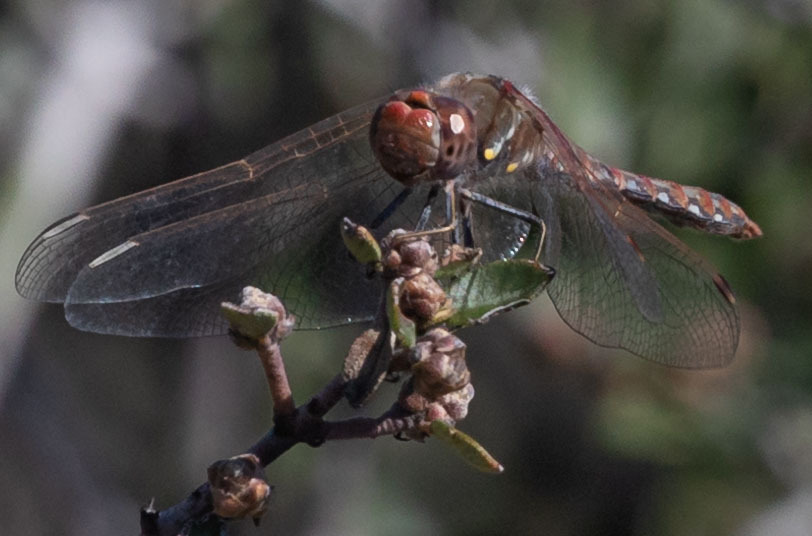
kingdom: Animalia
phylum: Arthropoda
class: Insecta
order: Odonata
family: Libellulidae
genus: Sympetrum
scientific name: Sympetrum corruptum
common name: Variegated meadowhawk
